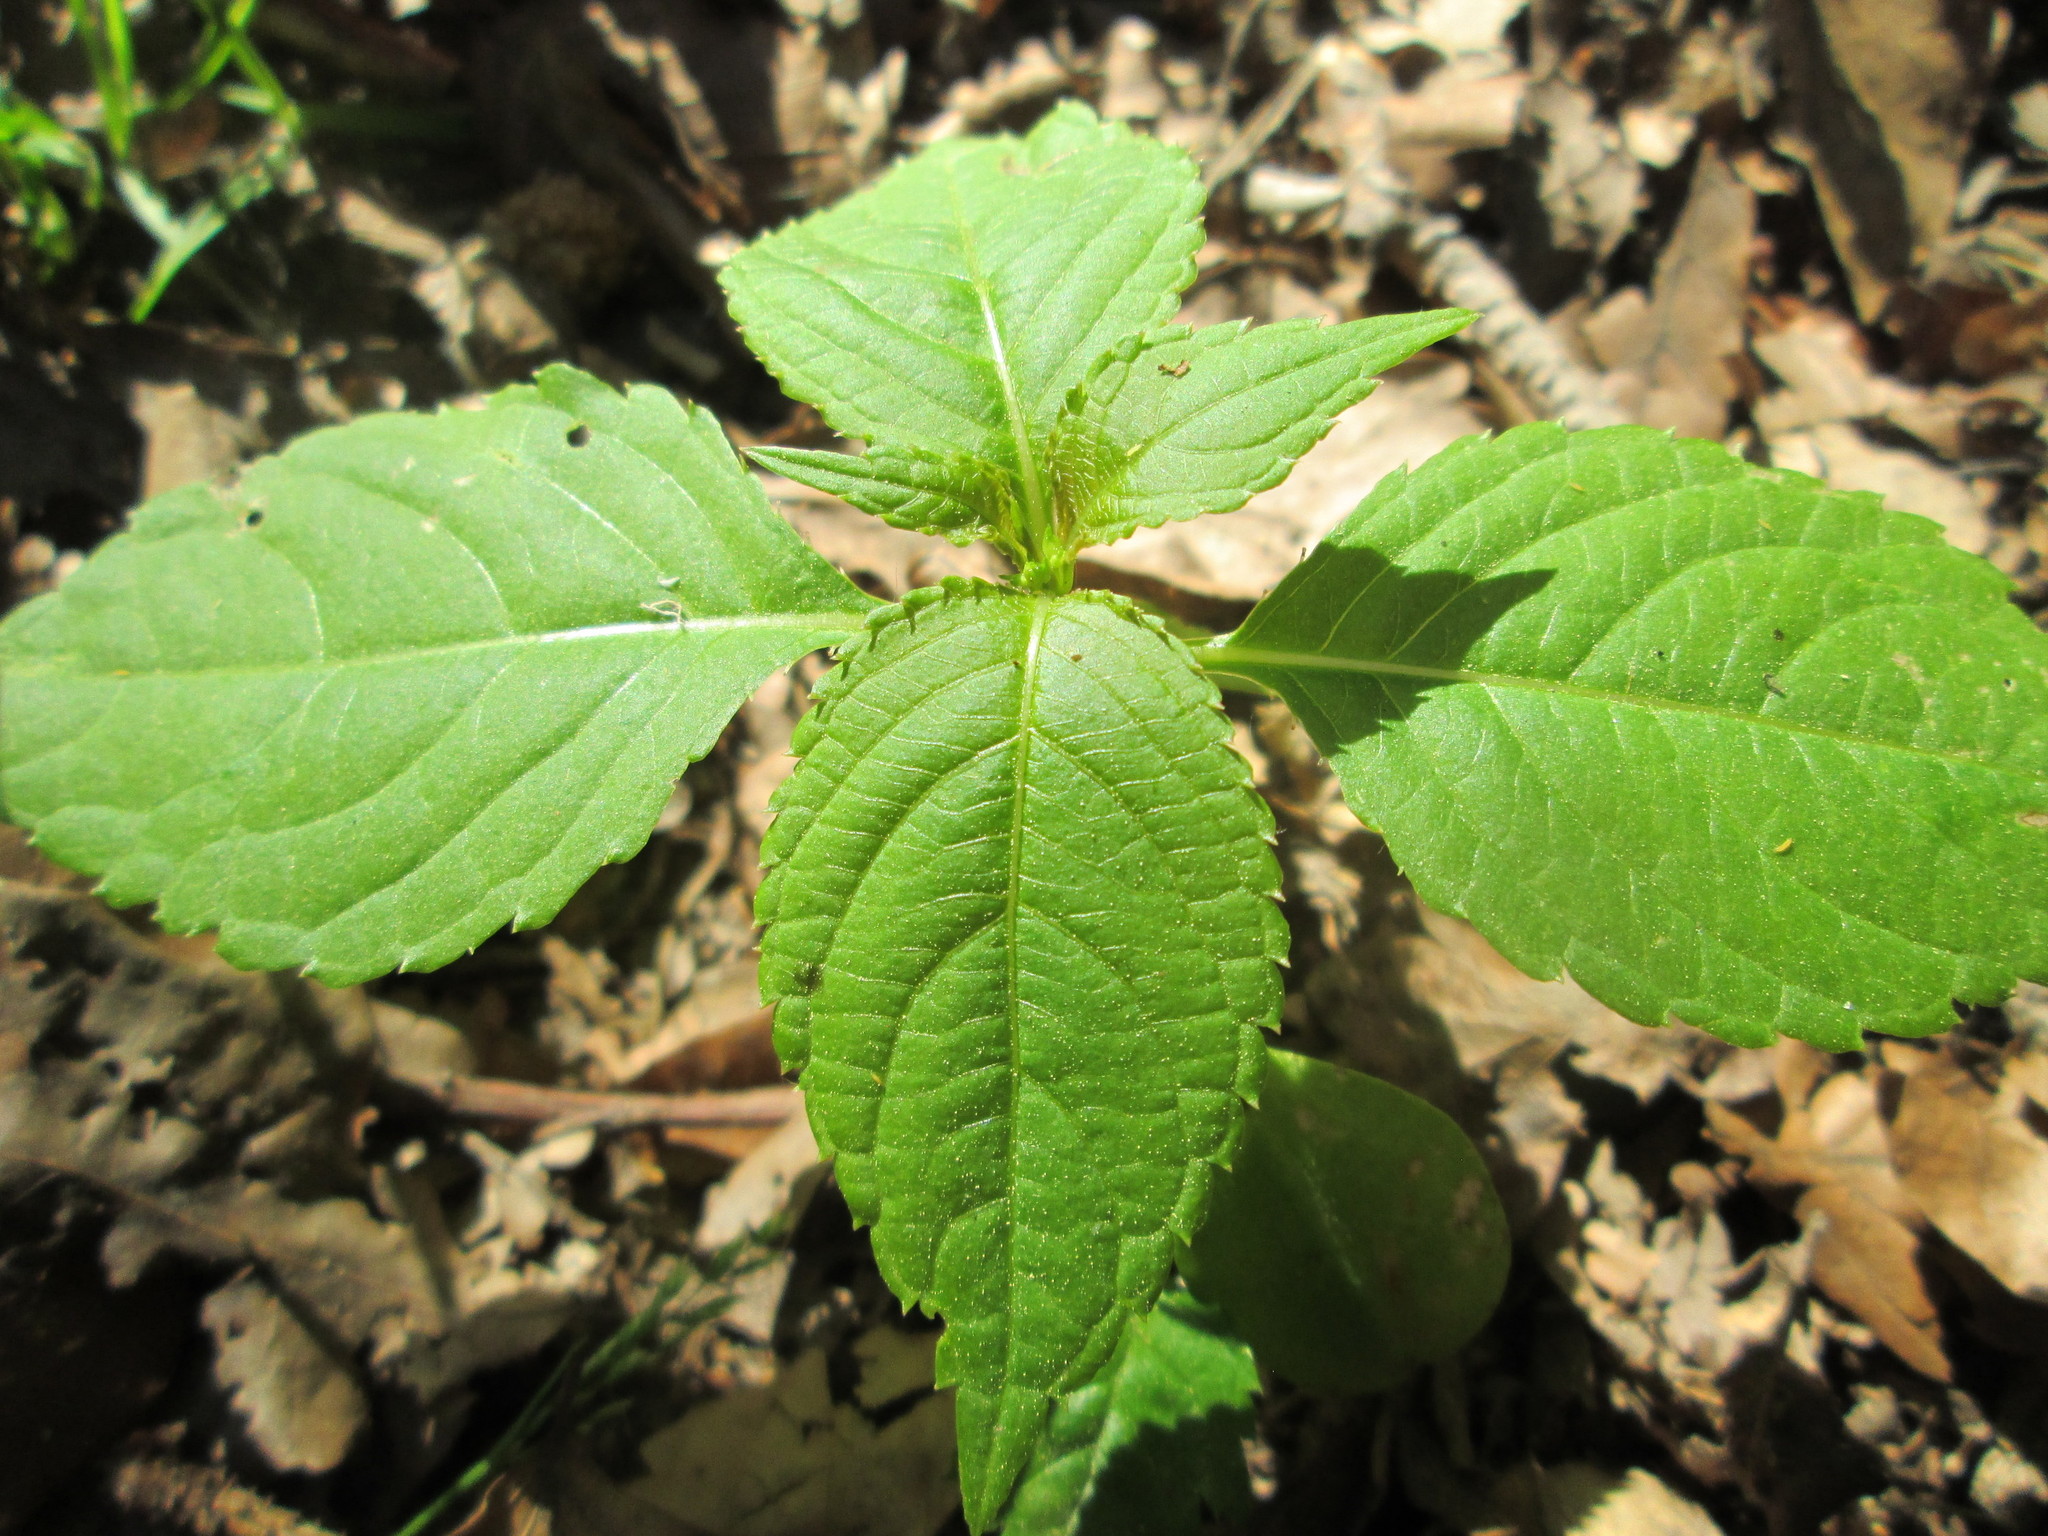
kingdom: Plantae
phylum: Tracheophyta
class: Magnoliopsida
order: Ericales
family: Balsaminaceae
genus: Impatiens
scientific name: Impatiens parviflora
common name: Small balsam
